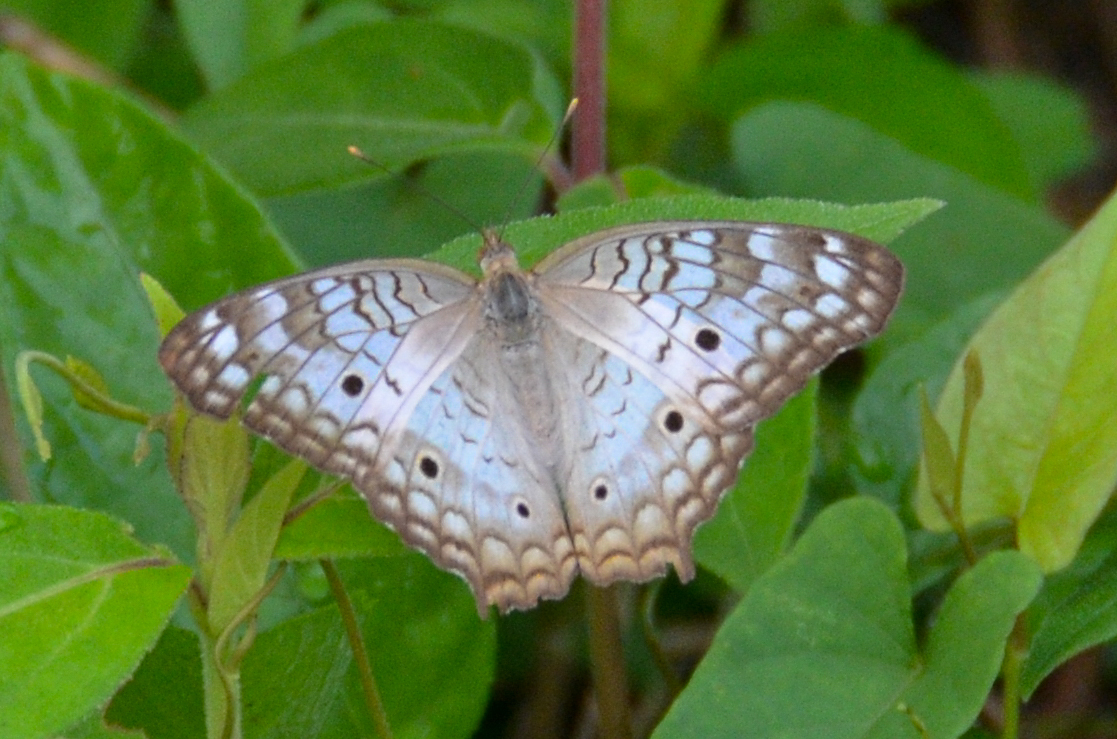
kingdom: Animalia
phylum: Arthropoda
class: Insecta
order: Lepidoptera
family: Nymphalidae
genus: Anartia
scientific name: Anartia jatrophae
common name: White peacock
